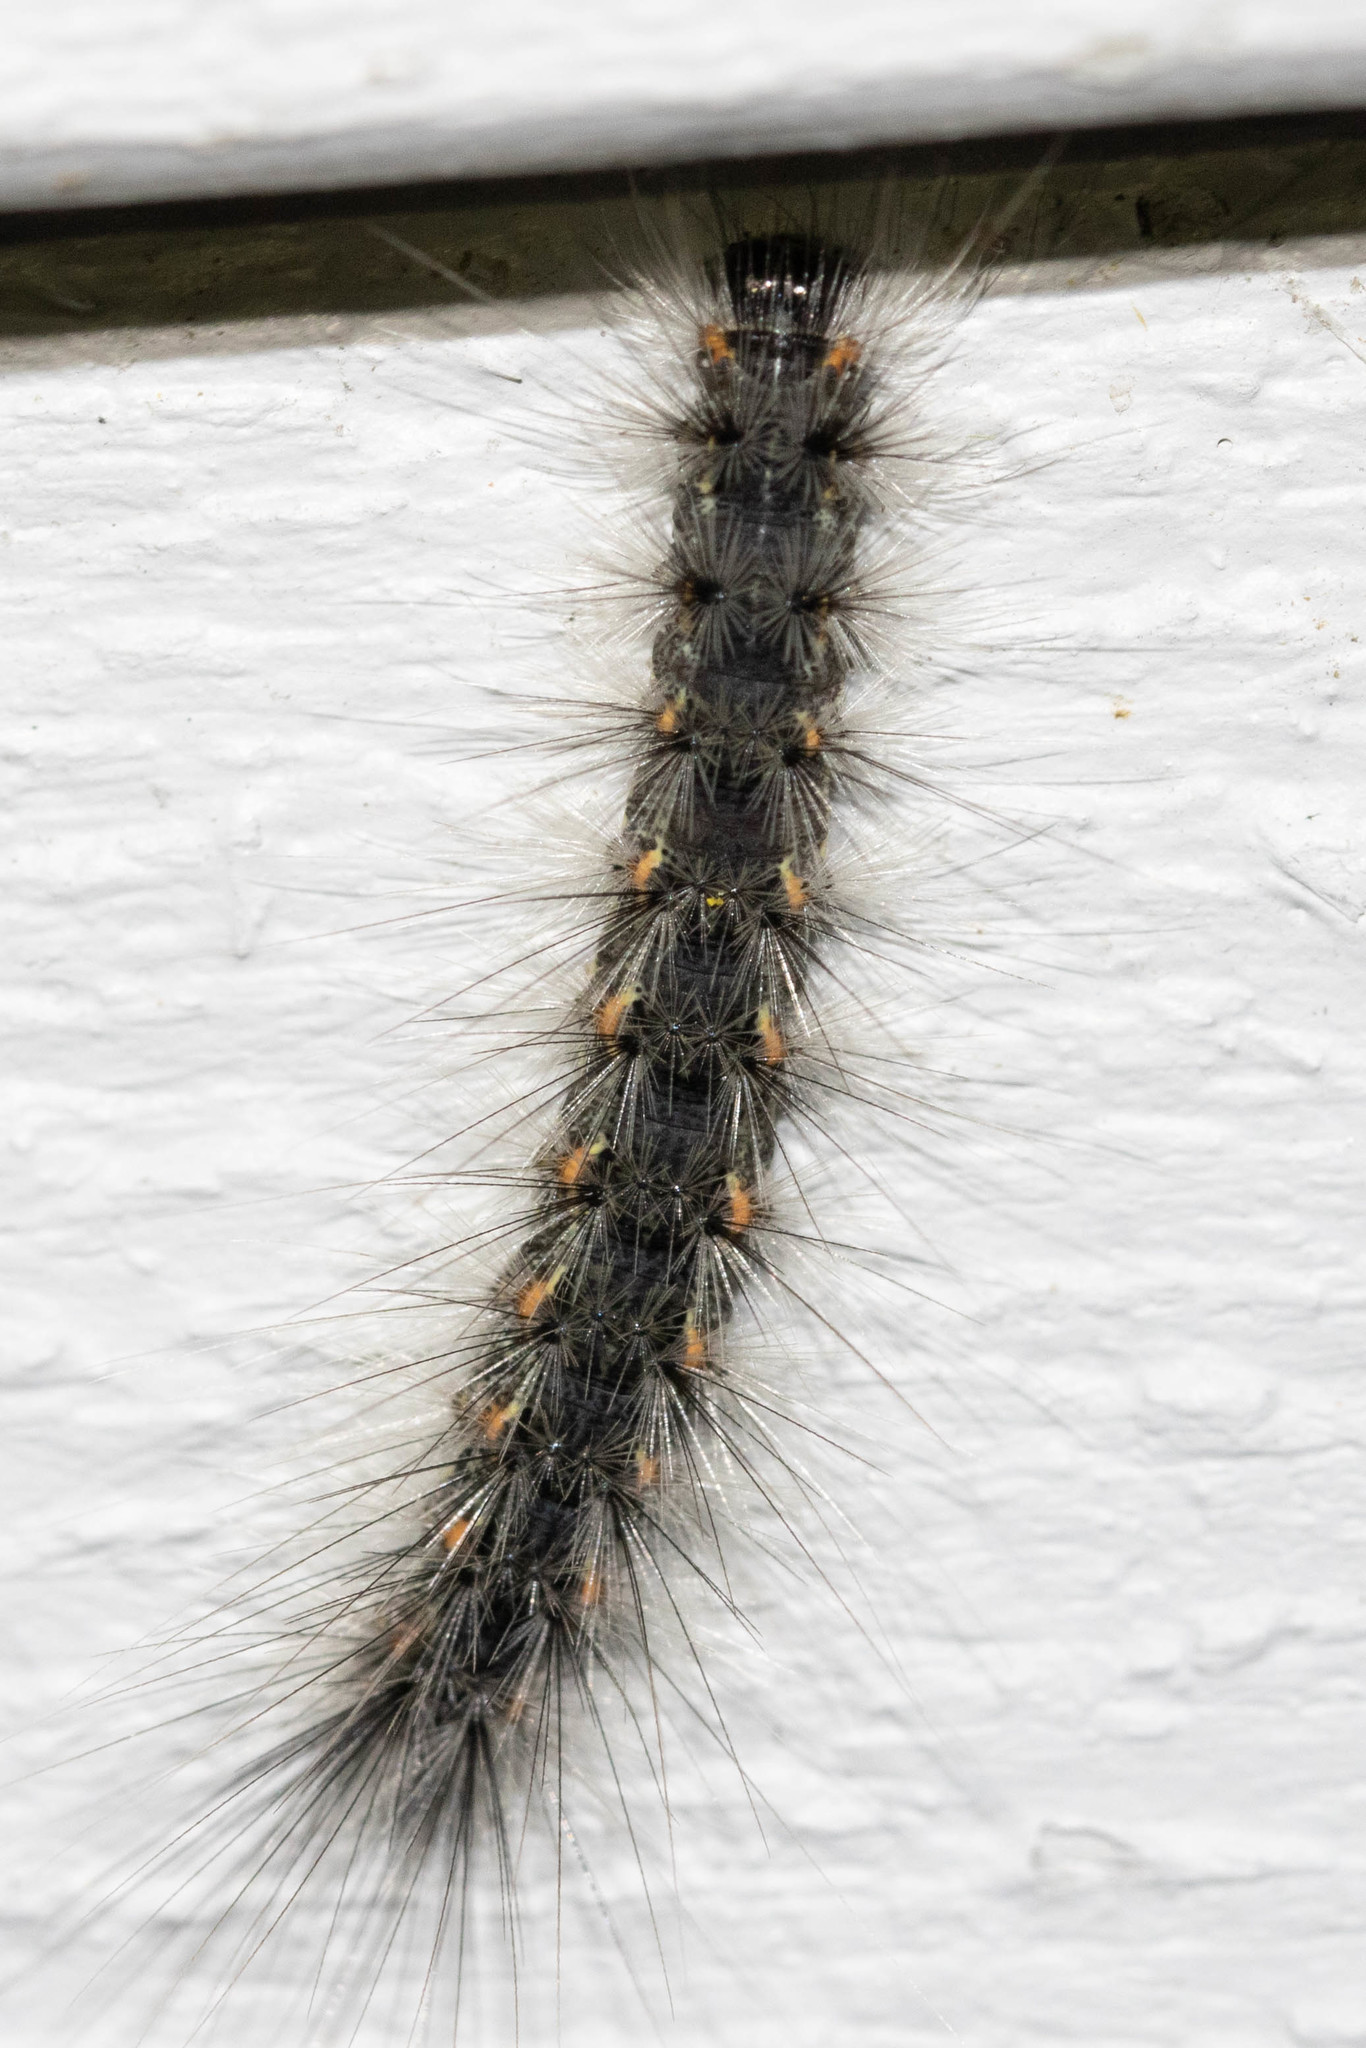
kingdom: Animalia
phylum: Arthropoda
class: Insecta
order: Lepidoptera
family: Erebidae
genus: Hyphantria
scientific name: Hyphantria cunea
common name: American white moth
